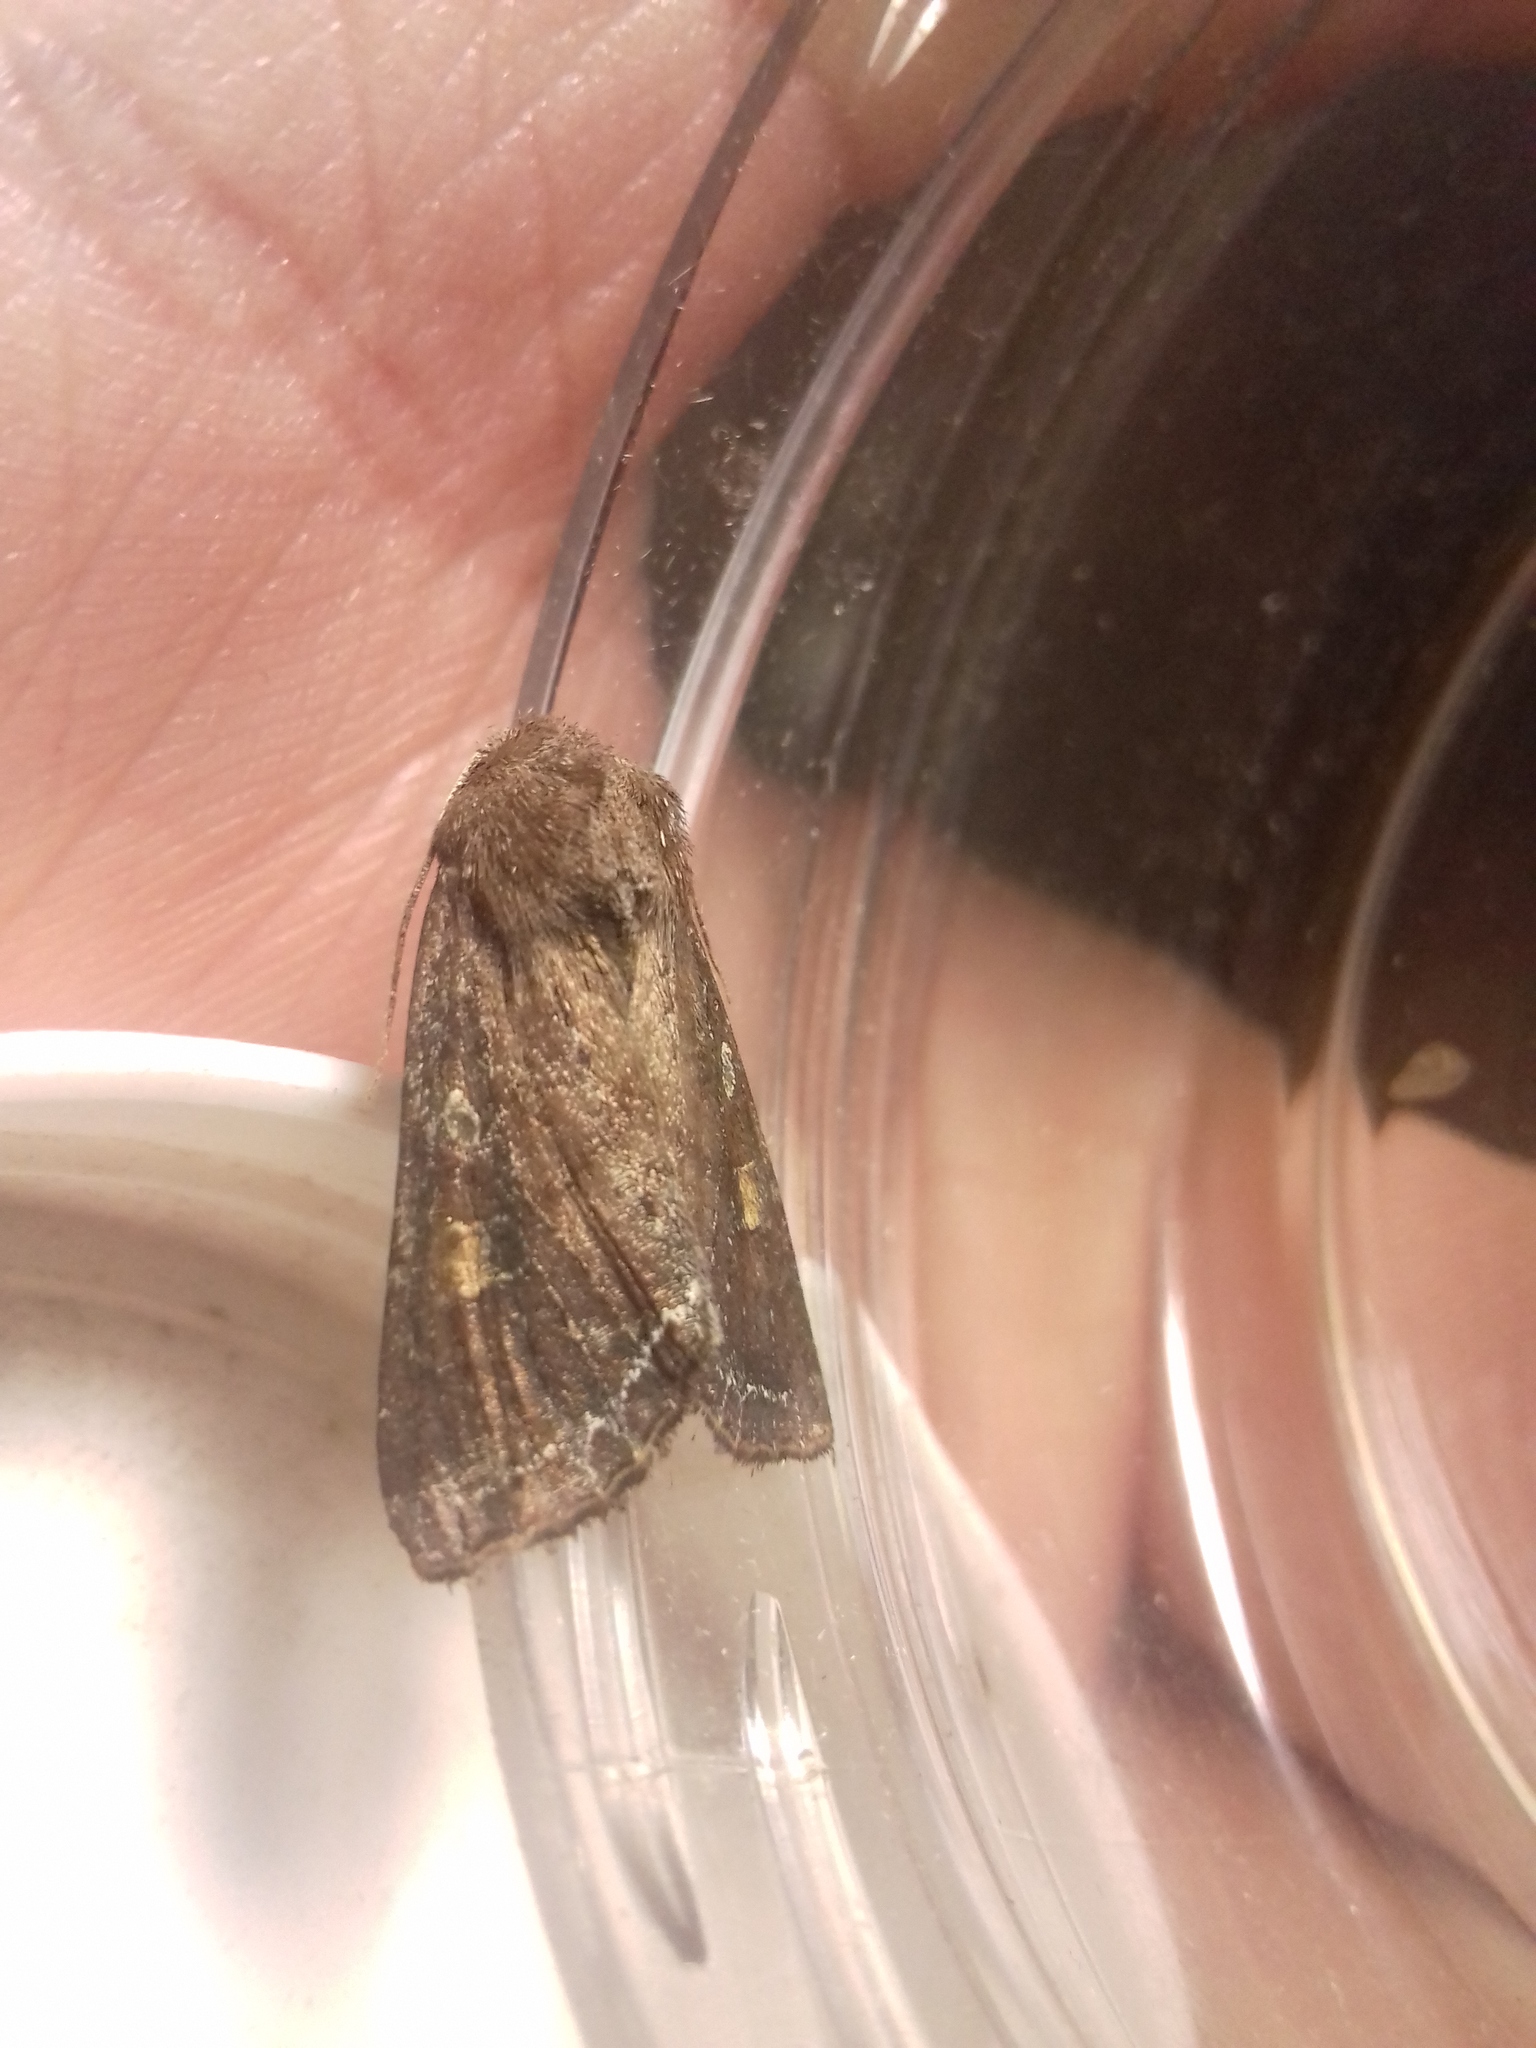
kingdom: Animalia
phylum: Arthropoda
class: Insecta
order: Lepidoptera
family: Noctuidae
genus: Lacanobia
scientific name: Lacanobia oleracea
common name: Bright-line brown-eye
